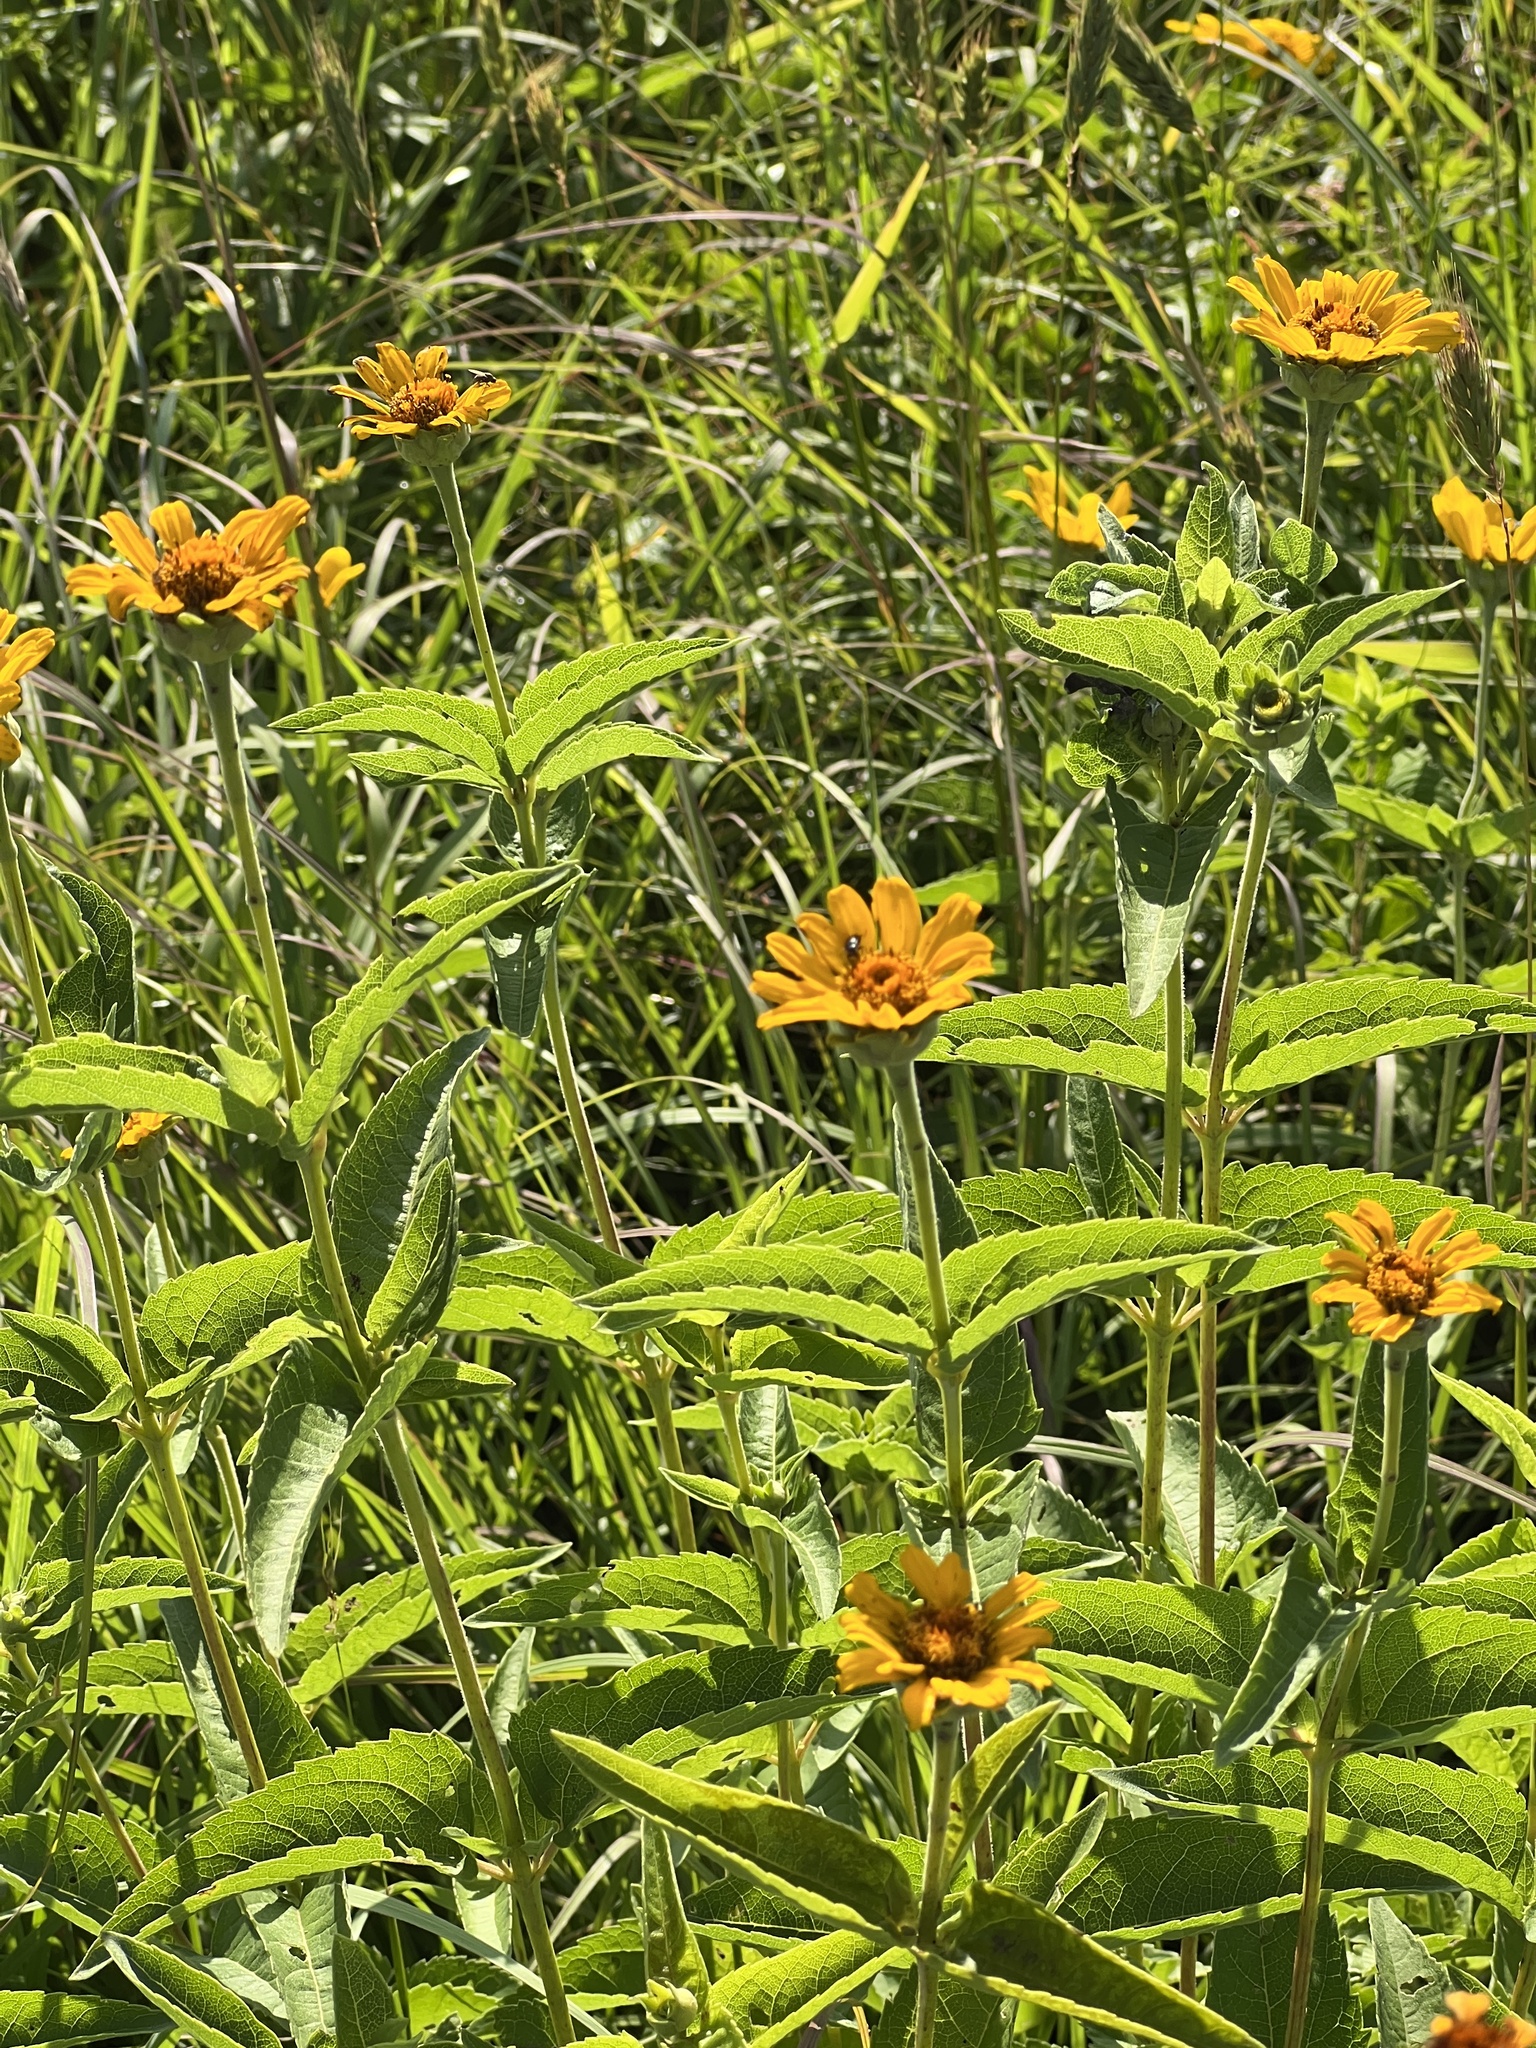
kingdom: Plantae
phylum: Tracheophyta
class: Magnoliopsida
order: Asterales
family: Asteraceae
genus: Heliopsis
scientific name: Heliopsis helianthoides
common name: False sunflower
